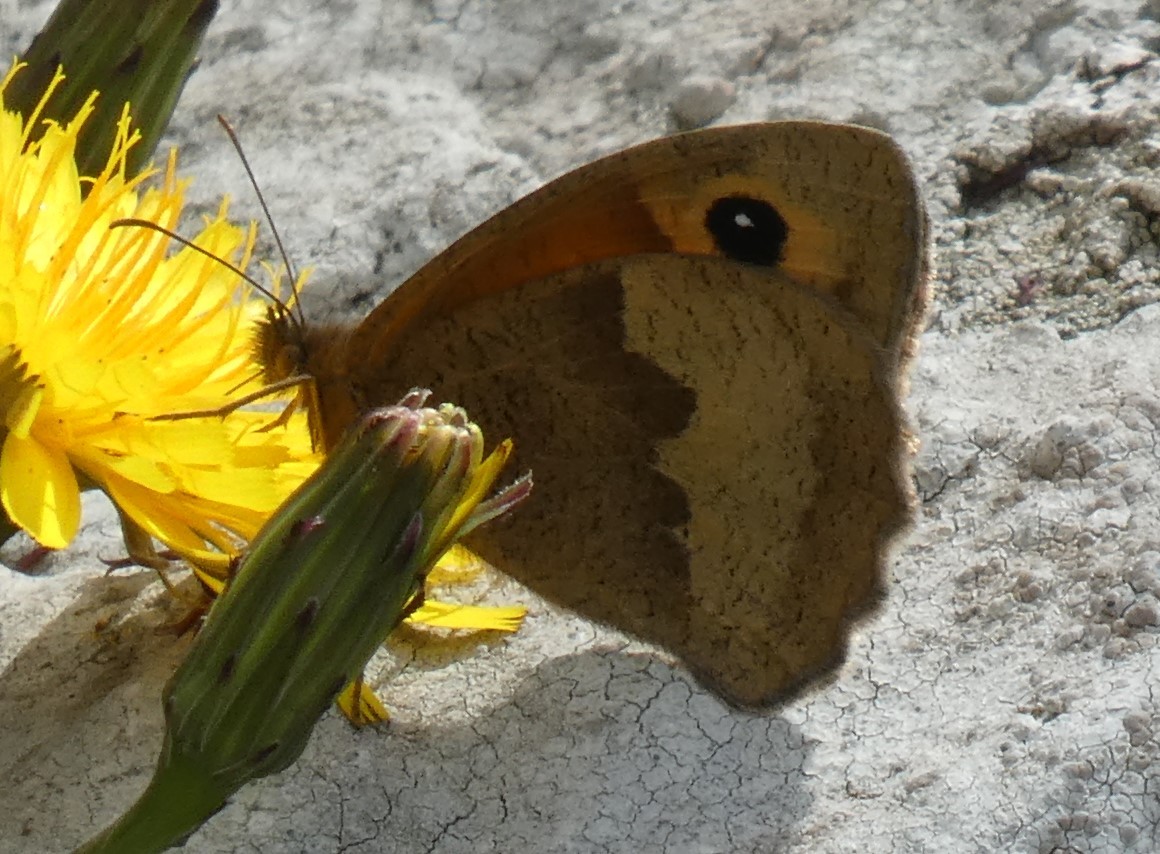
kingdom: Animalia
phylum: Arthropoda
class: Insecta
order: Lepidoptera
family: Nymphalidae
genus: Maniola
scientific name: Maniola jurtina
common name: Meadow brown
